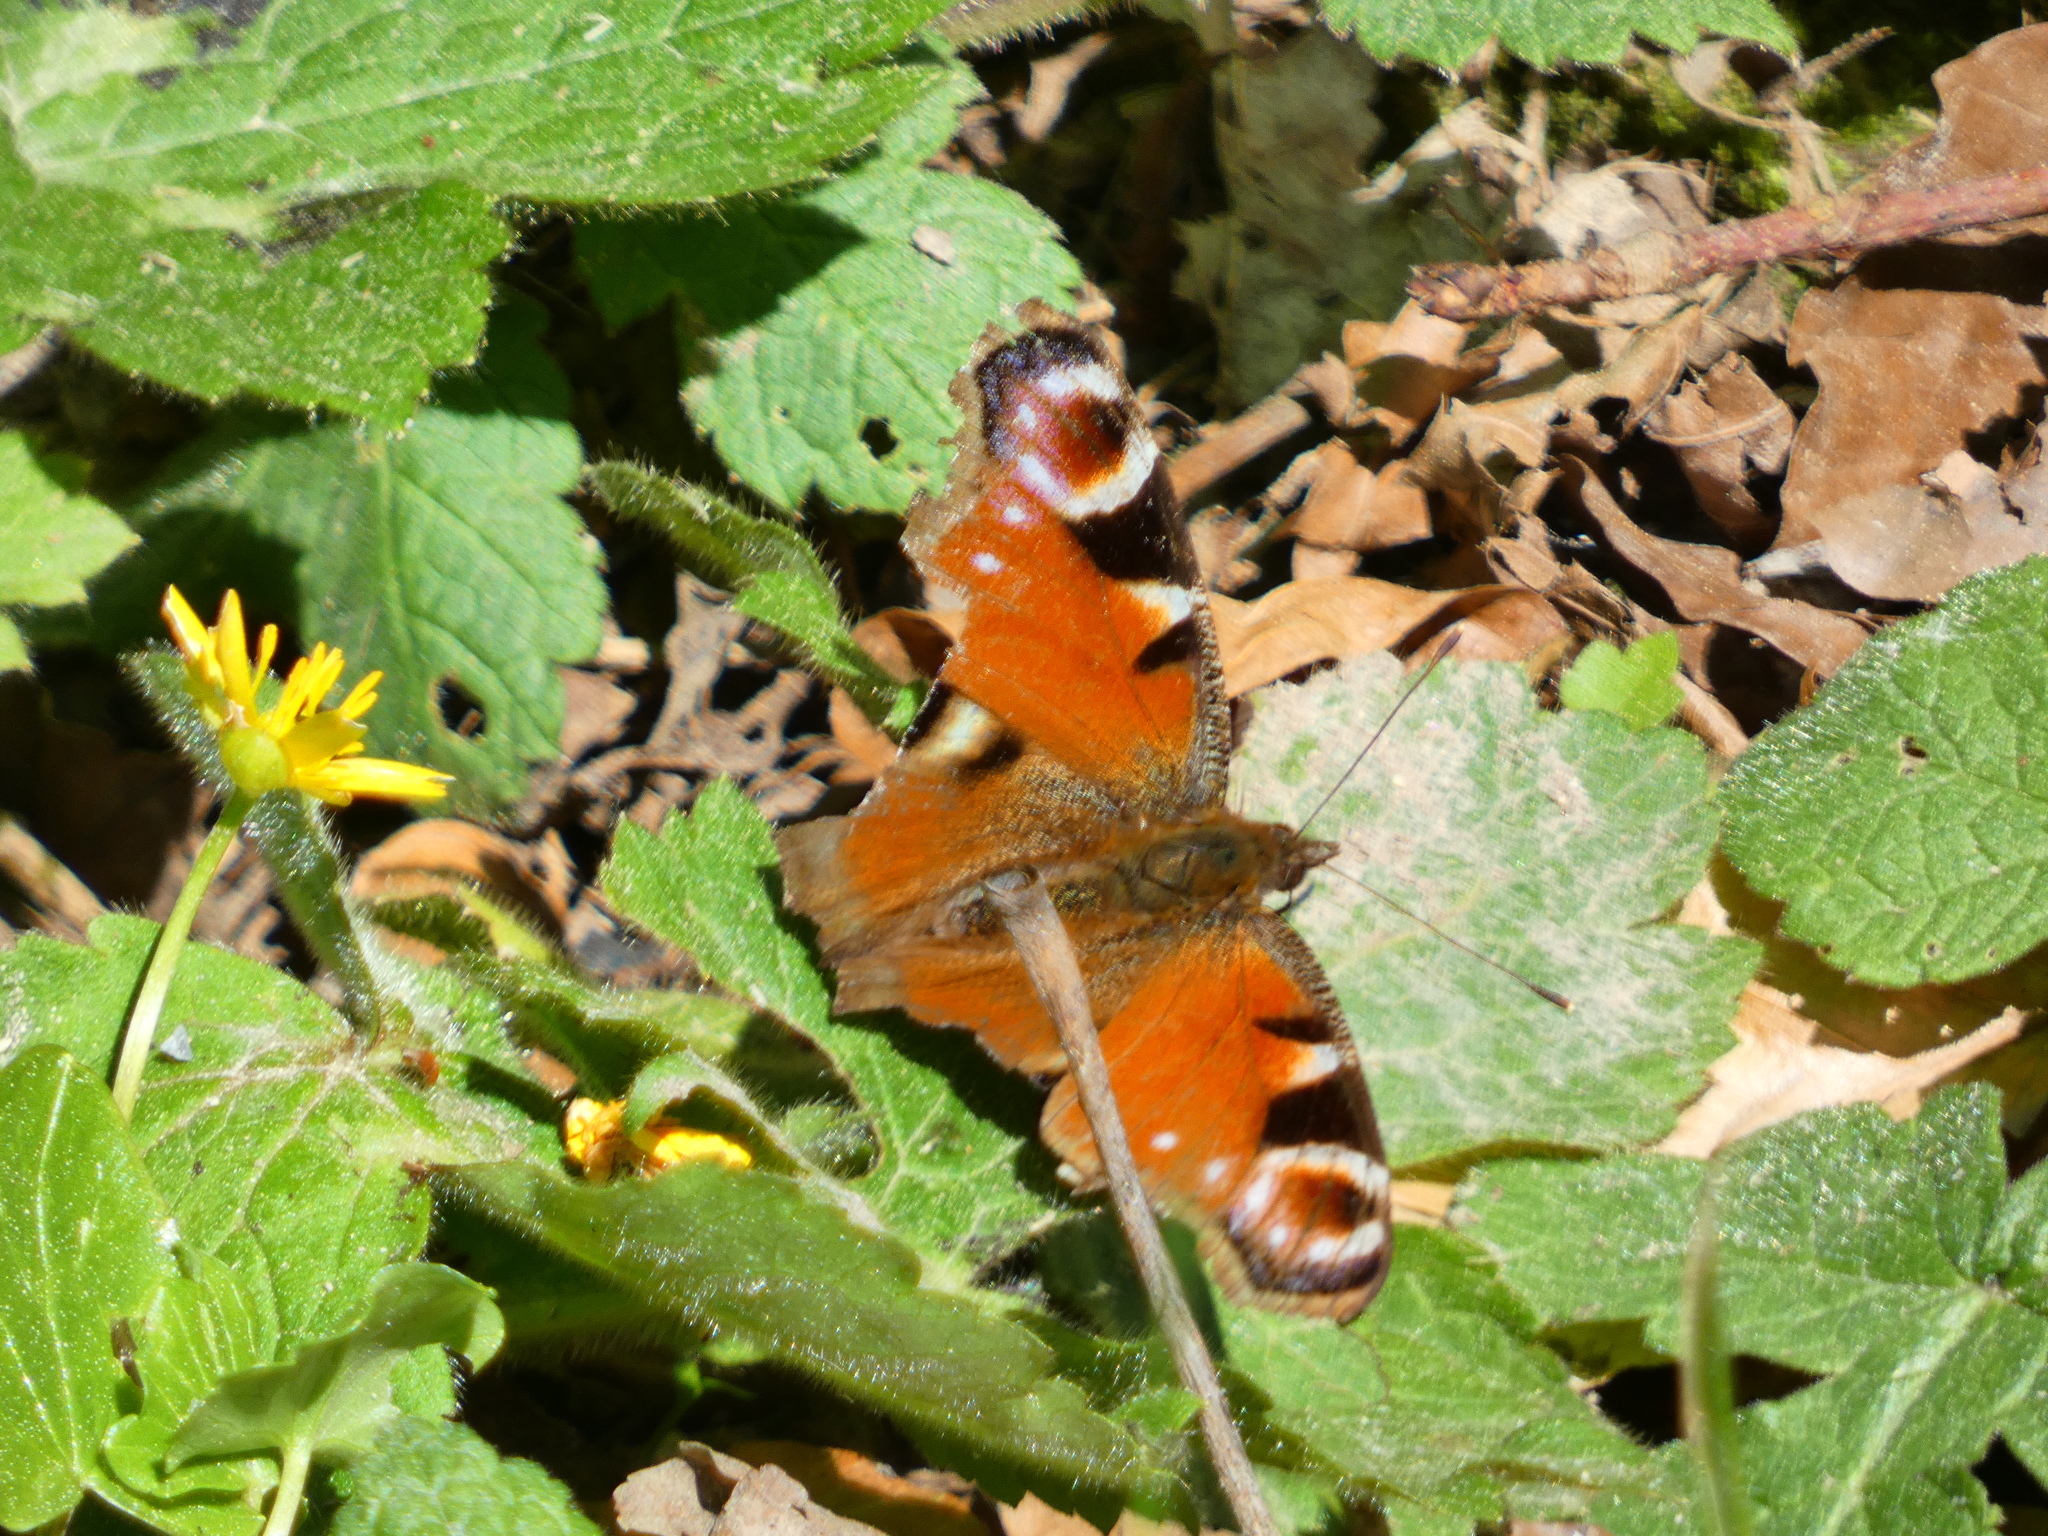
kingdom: Animalia
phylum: Arthropoda
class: Insecta
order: Lepidoptera
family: Nymphalidae
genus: Aglais
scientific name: Aglais io
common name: Peacock
